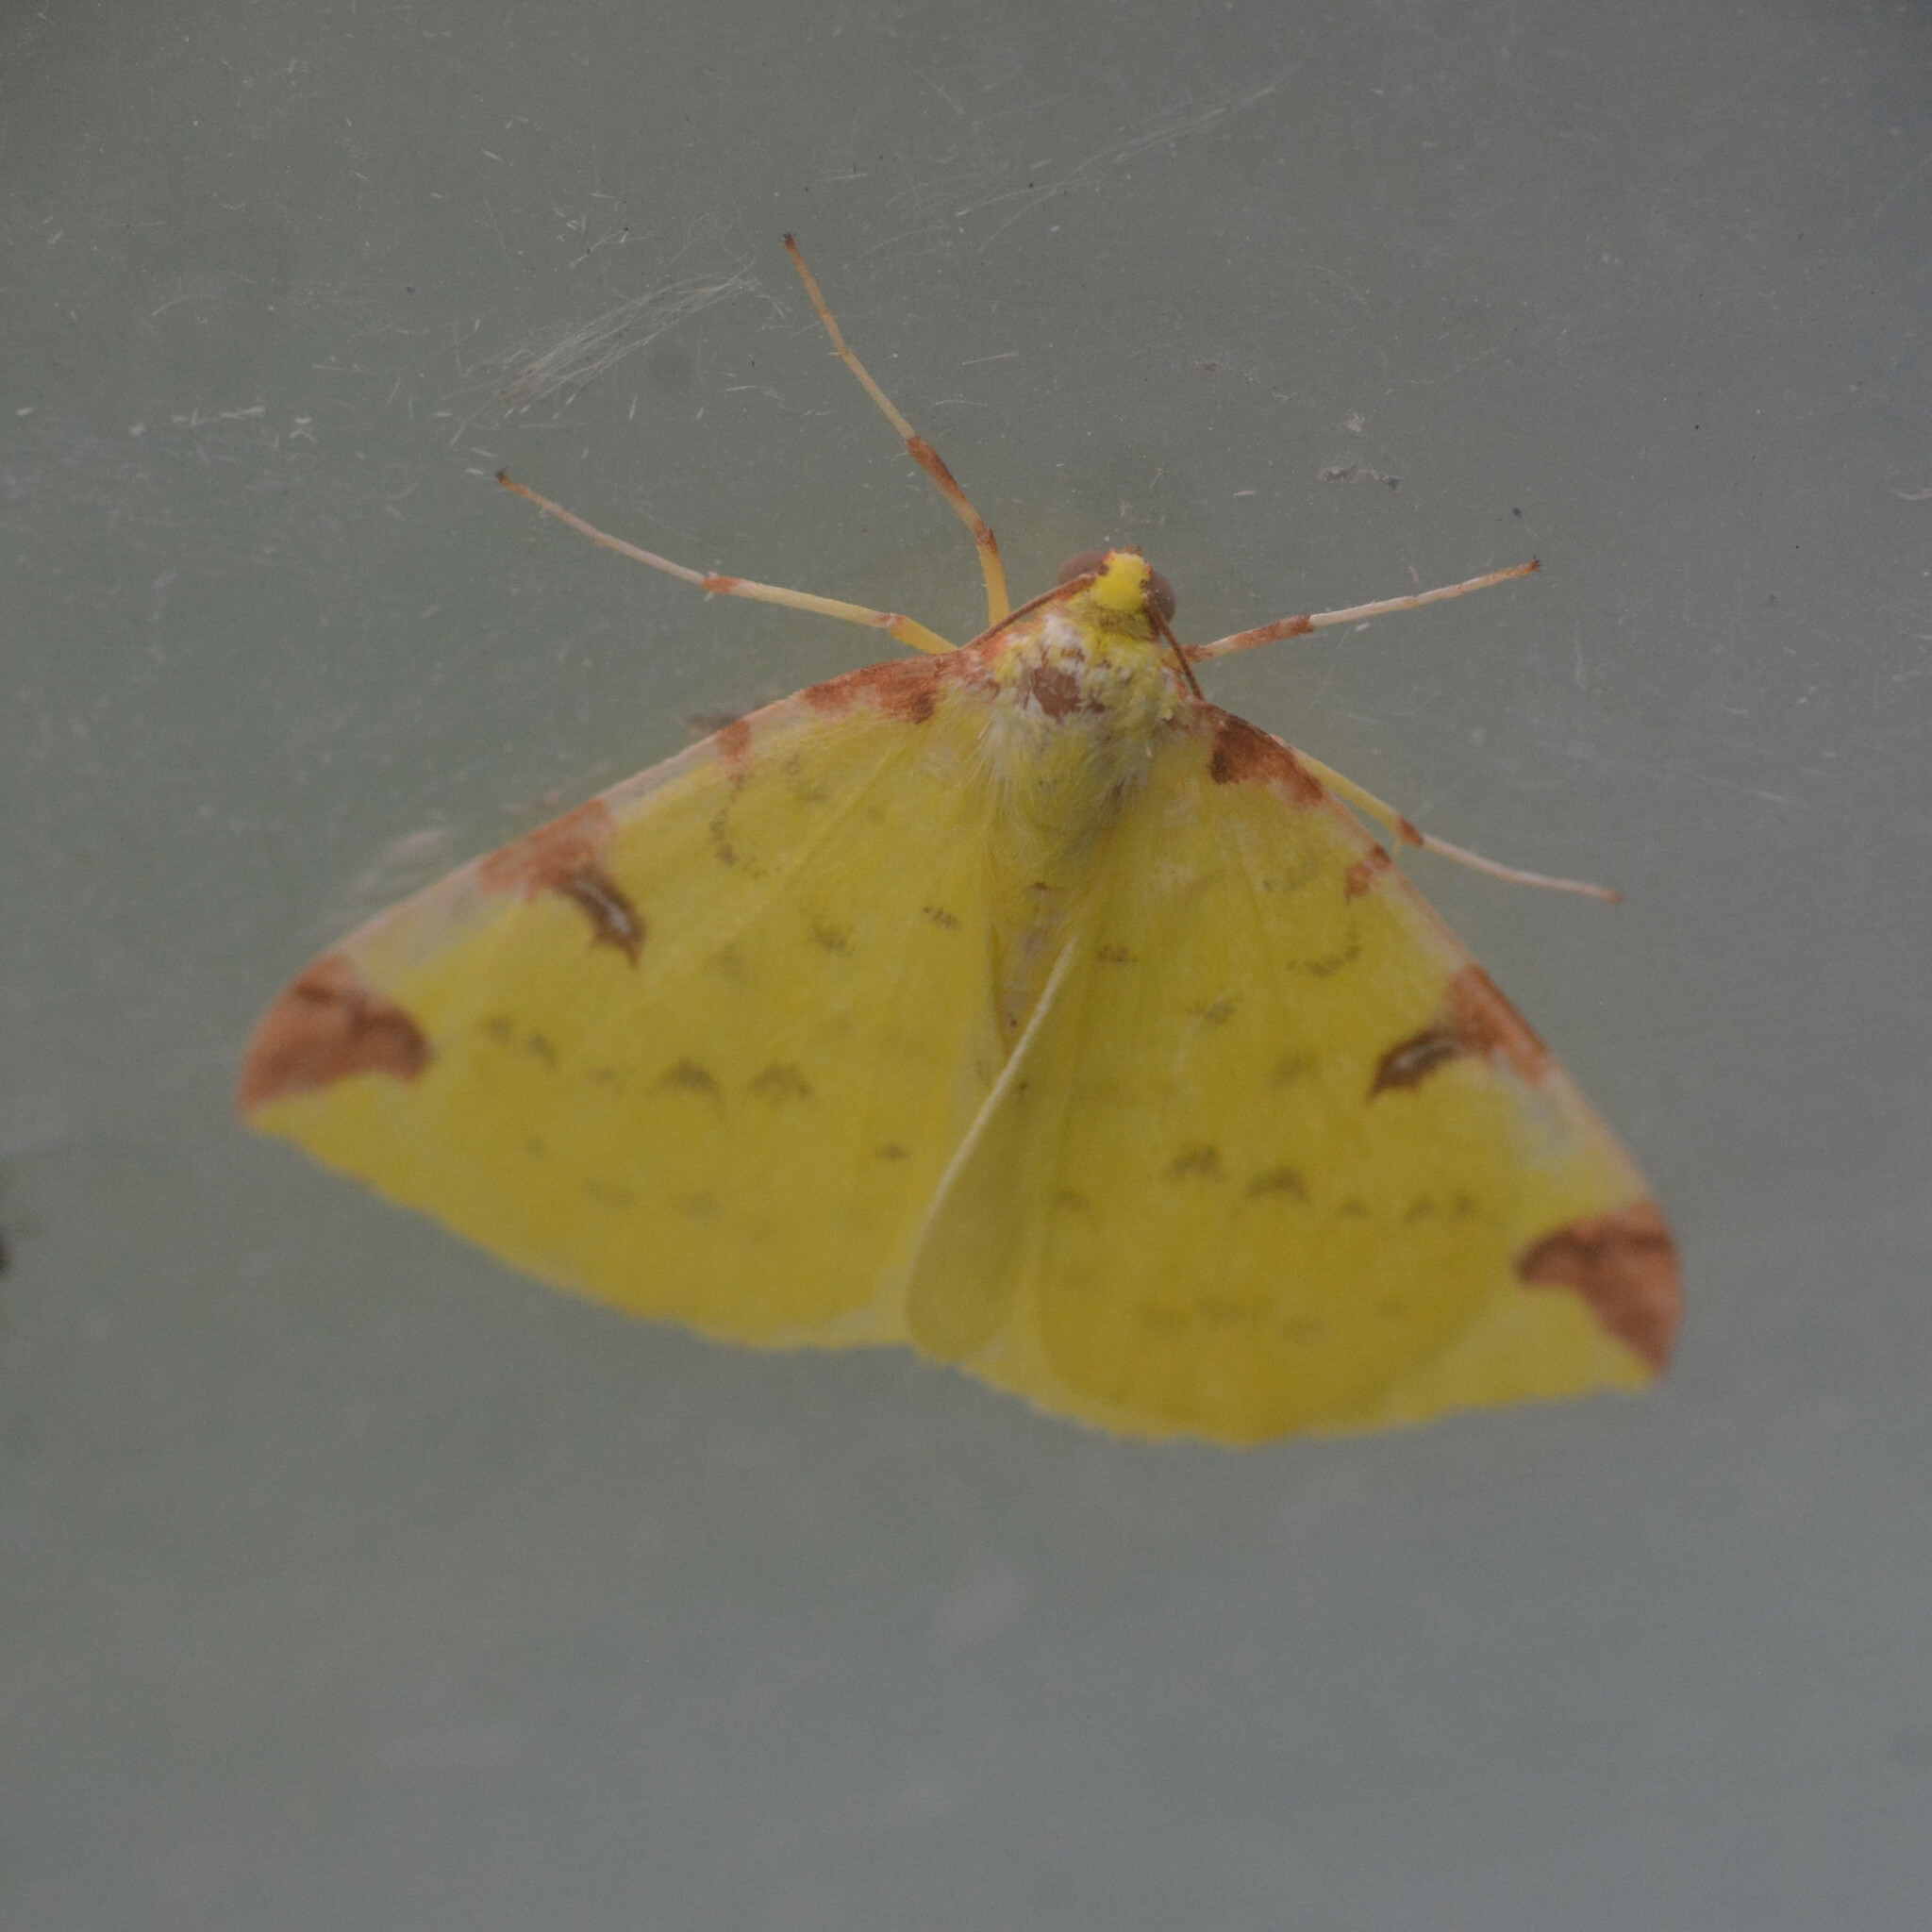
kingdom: Animalia
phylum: Arthropoda
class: Insecta
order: Lepidoptera
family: Geometridae
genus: Opisthograptis
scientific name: Opisthograptis luteolata
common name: Brimstone moth
